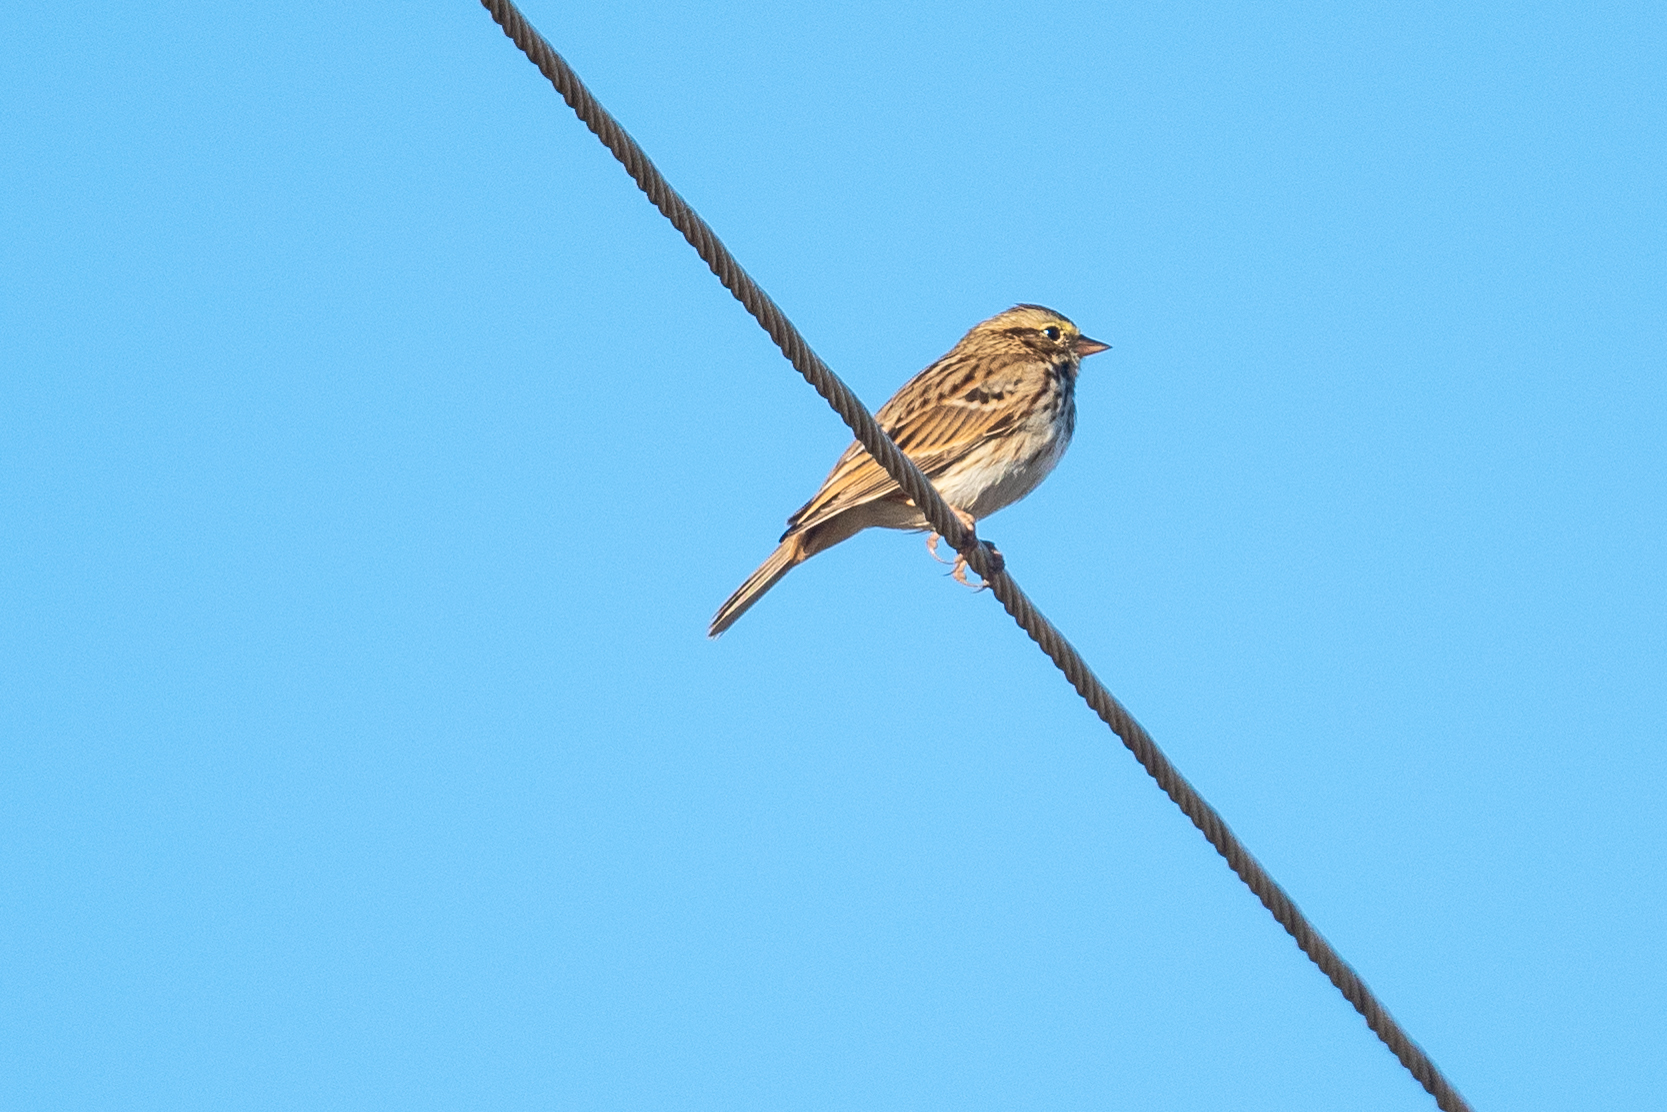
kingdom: Animalia
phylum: Chordata
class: Aves
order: Passeriformes
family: Passerellidae
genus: Passerculus
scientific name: Passerculus sandwichensis
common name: Savannah sparrow
